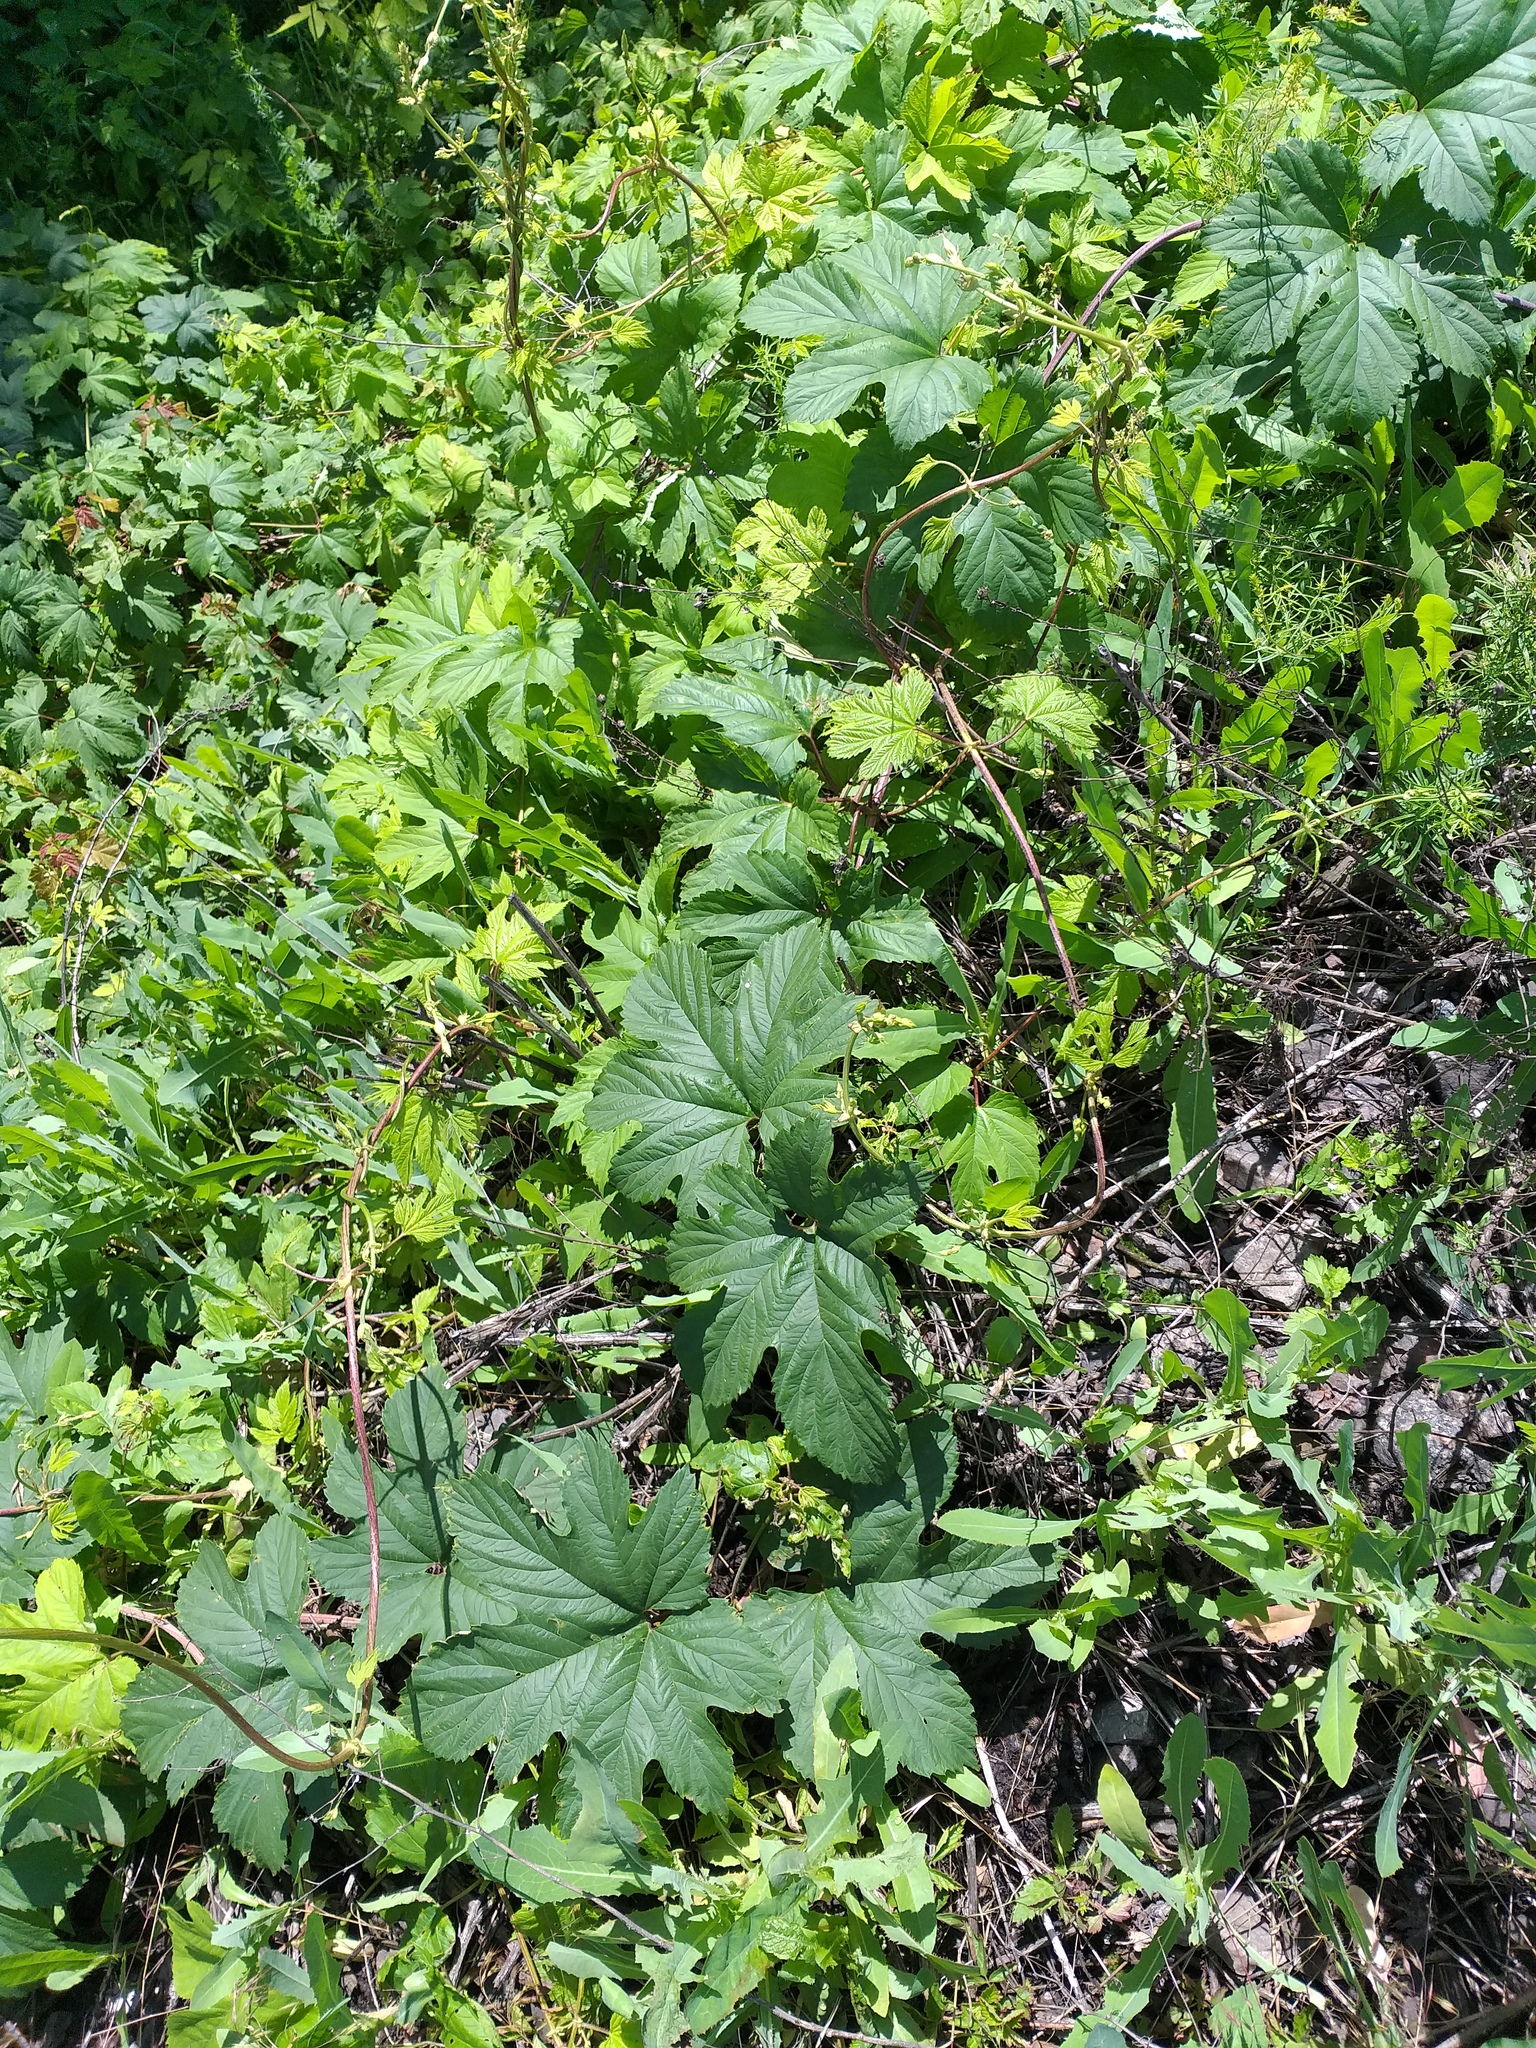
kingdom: Plantae
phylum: Tracheophyta
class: Magnoliopsida
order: Rosales
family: Cannabaceae
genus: Humulus
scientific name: Humulus lupulus
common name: Hop
